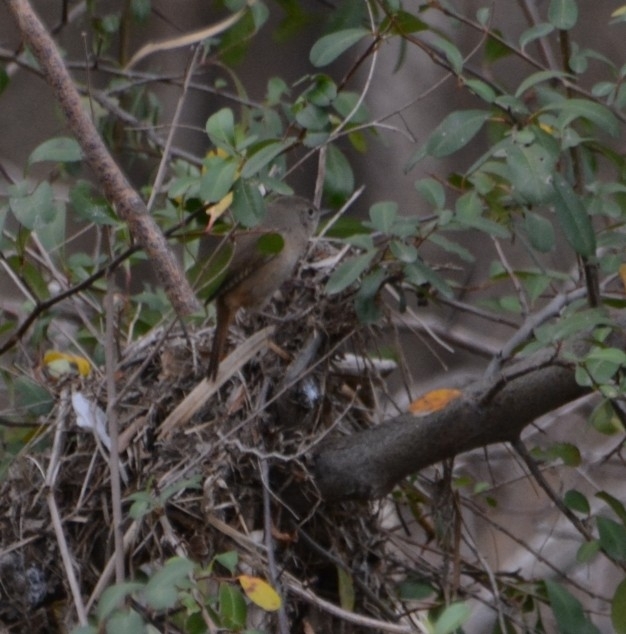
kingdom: Animalia
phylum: Chordata
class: Aves
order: Passeriformes
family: Troglodytidae
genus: Troglodytes
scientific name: Troglodytes aedon
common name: House wren
